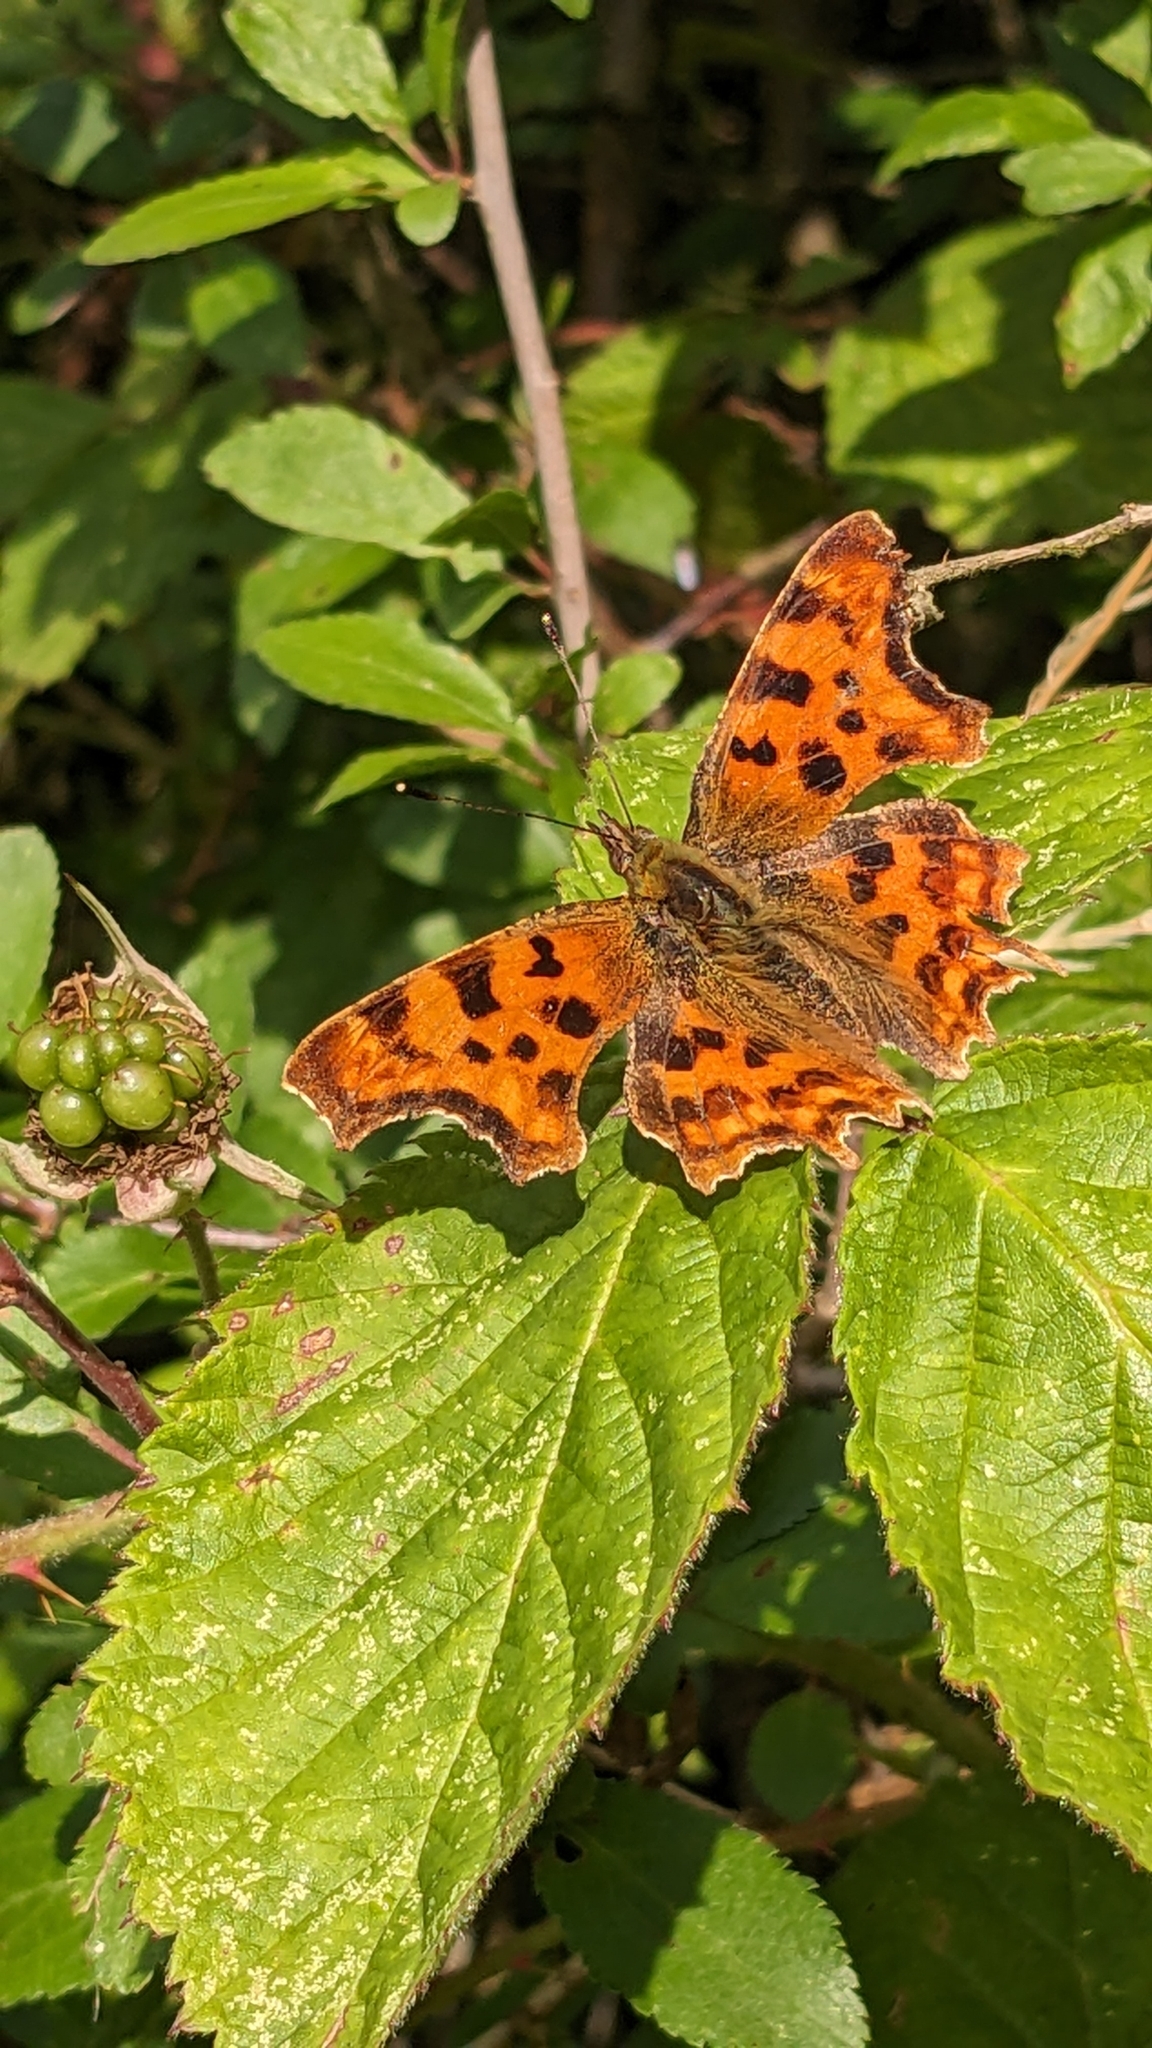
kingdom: Animalia
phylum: Arthropoda
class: Insecta
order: Lepidoptera
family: Nymphalidae
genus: Polygonia
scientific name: Polygonia c-album
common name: Comma
